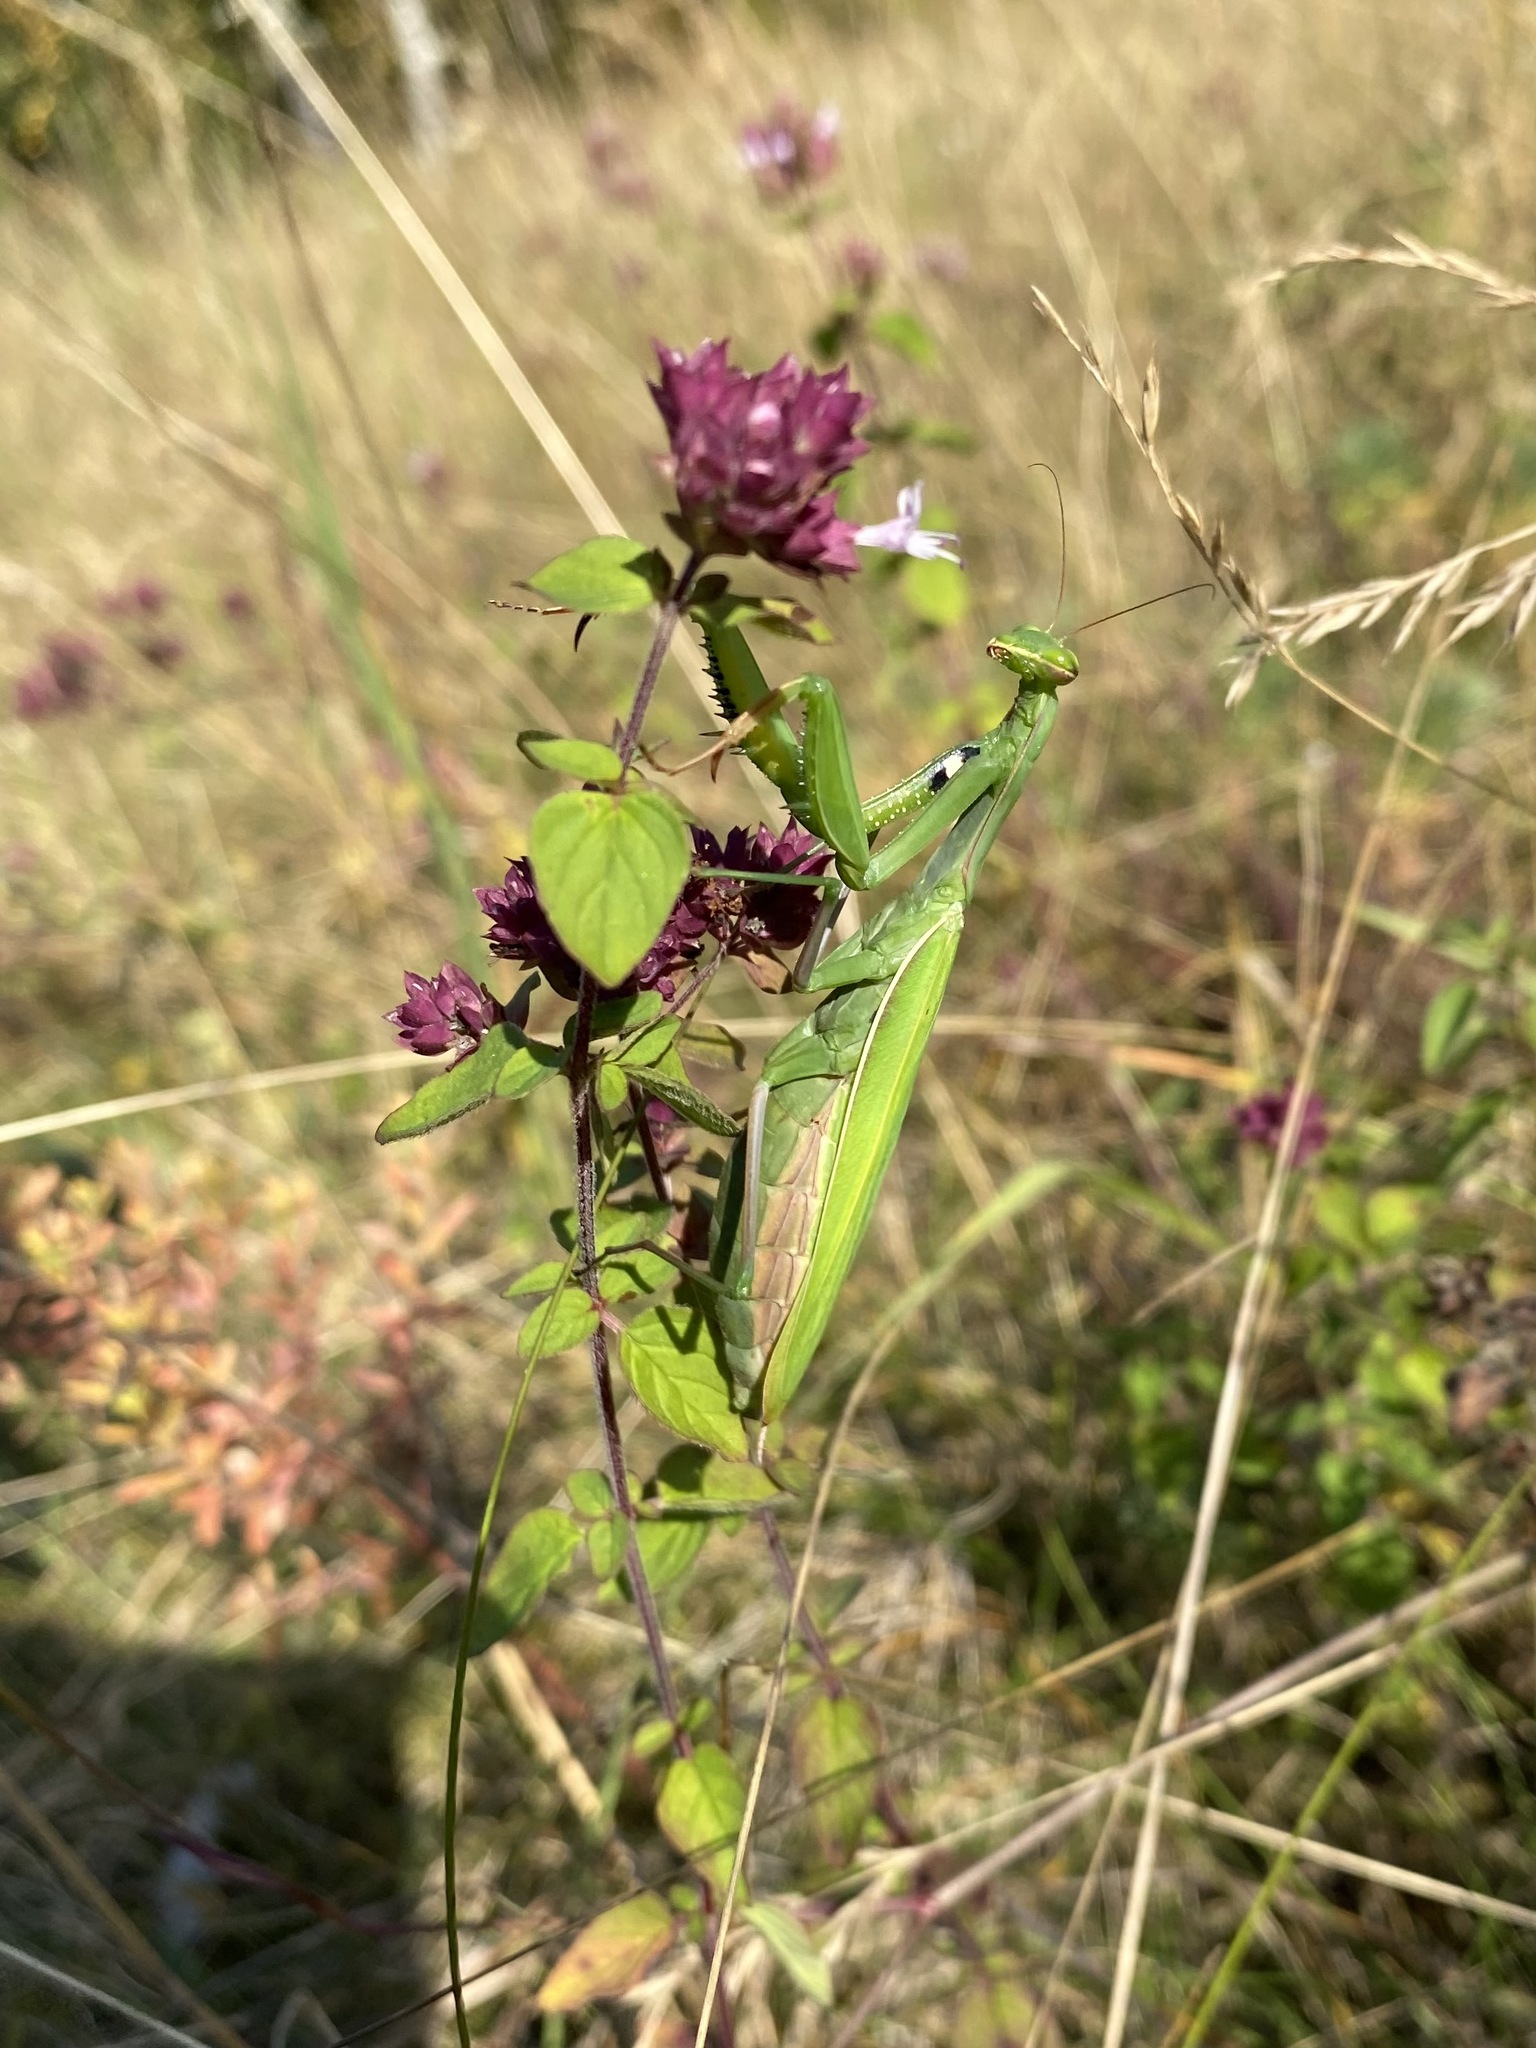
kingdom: Animalia
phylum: Arthropoda
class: Insecta
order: Mantodea
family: Mantidae
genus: Mantis
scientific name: Mantis religiosa
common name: Praying mantis
